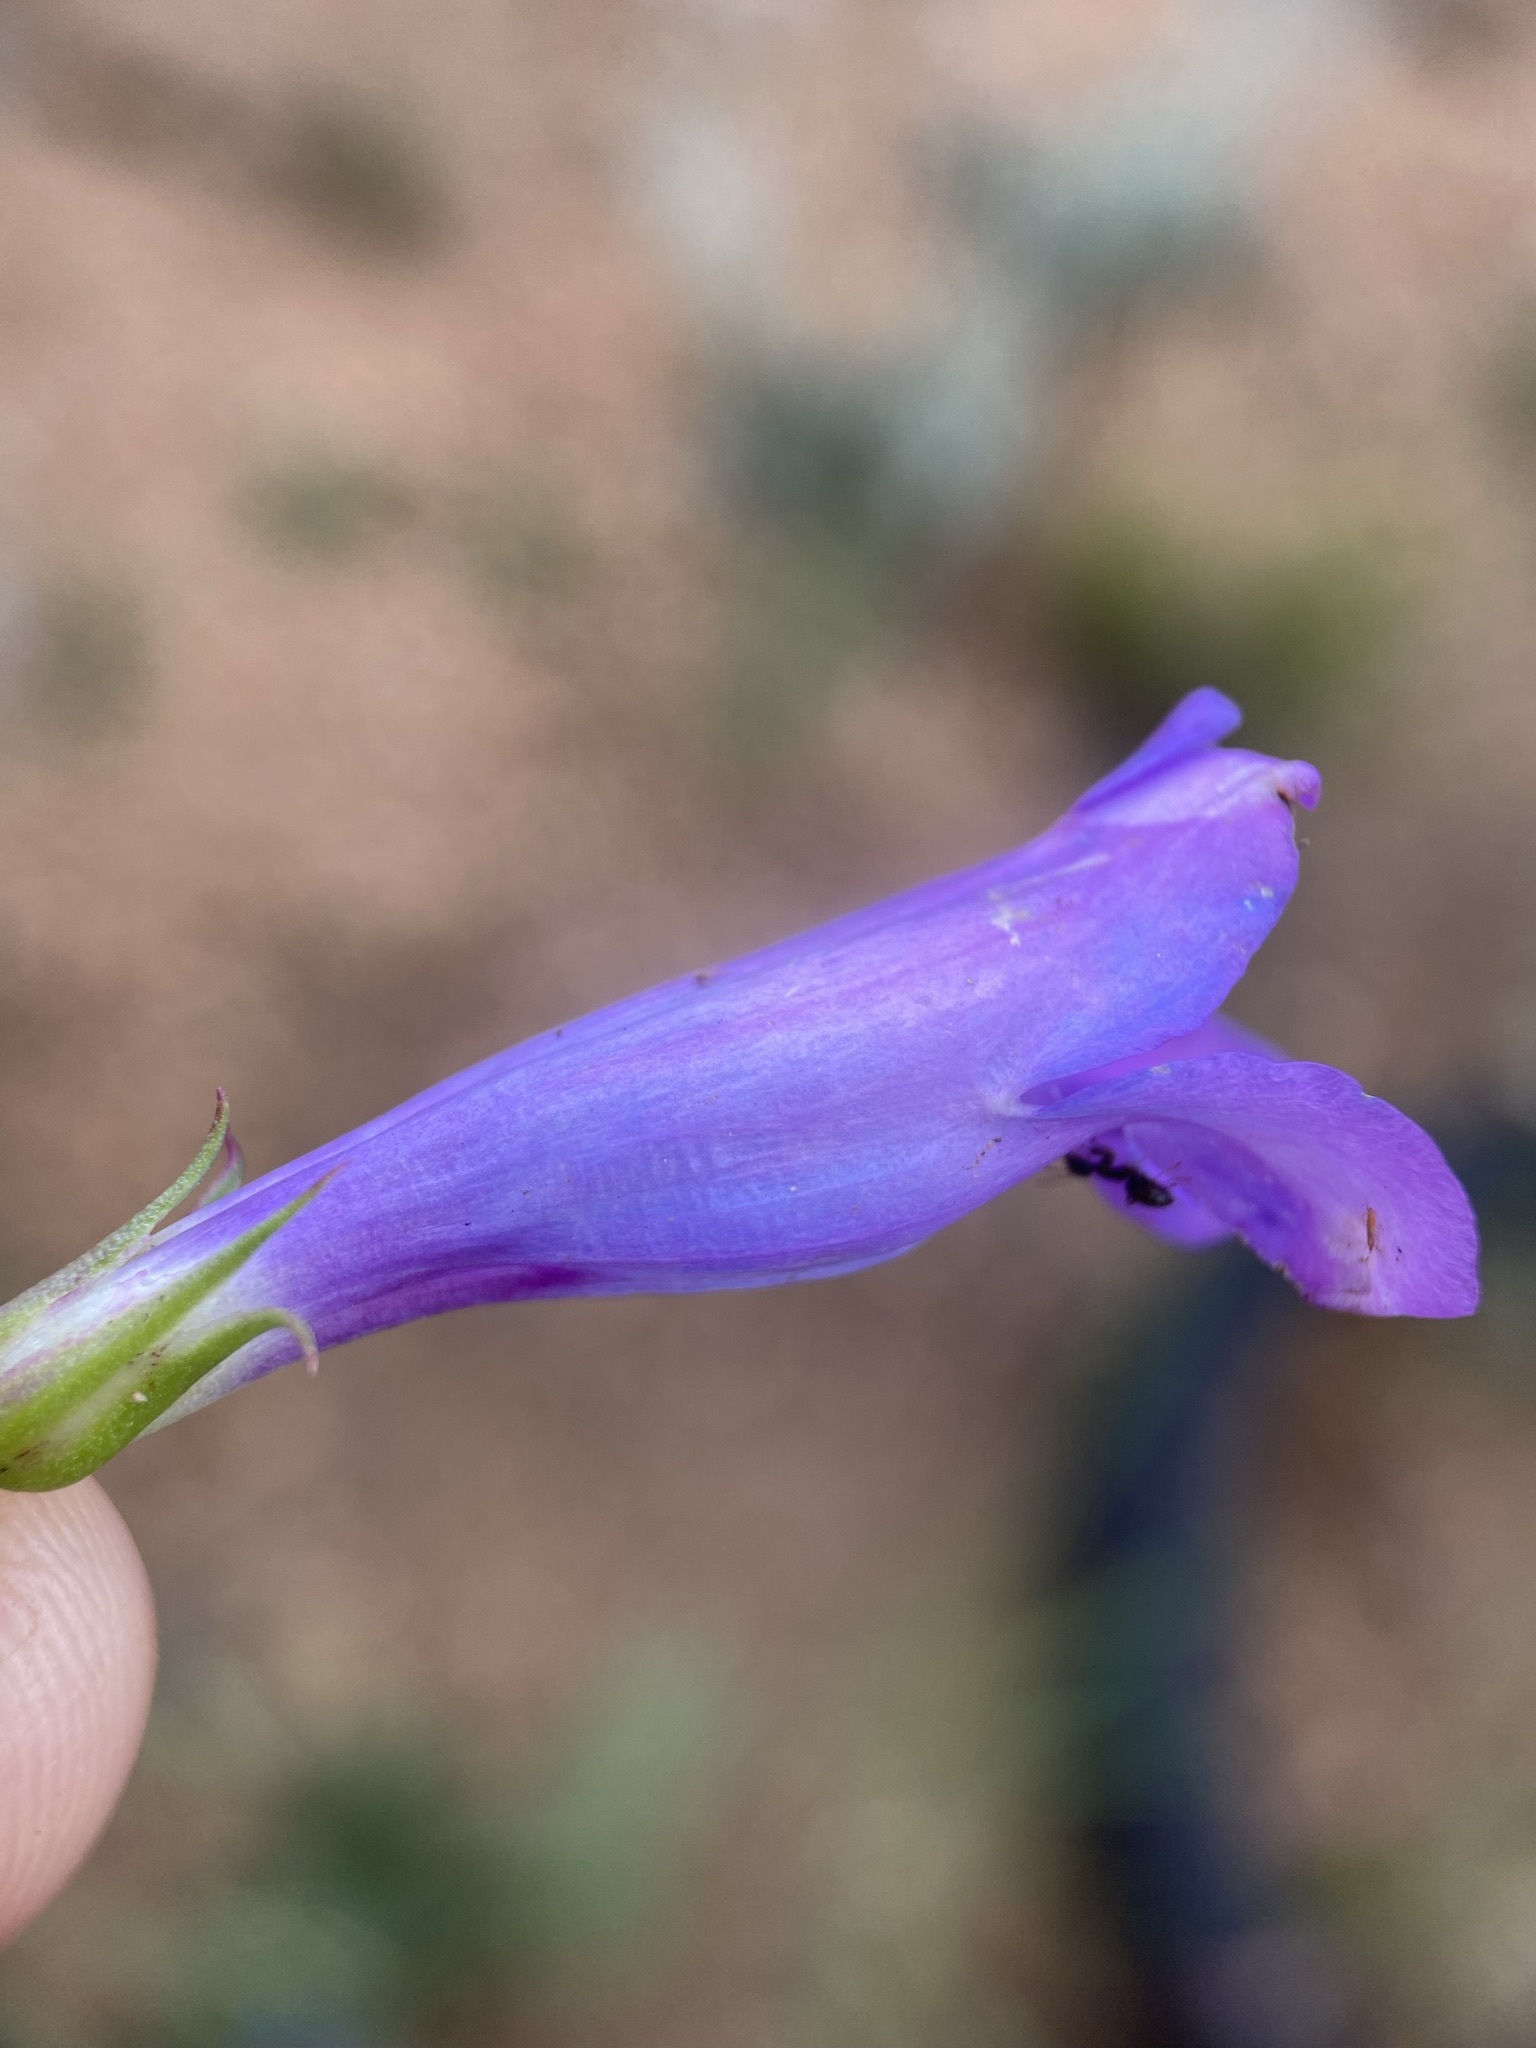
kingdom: Plantae
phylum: Tracheophyta
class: Magnoliopsida
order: Lamiales
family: Plantaginaceae
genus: Penstemon
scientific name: Penstemon glaber
